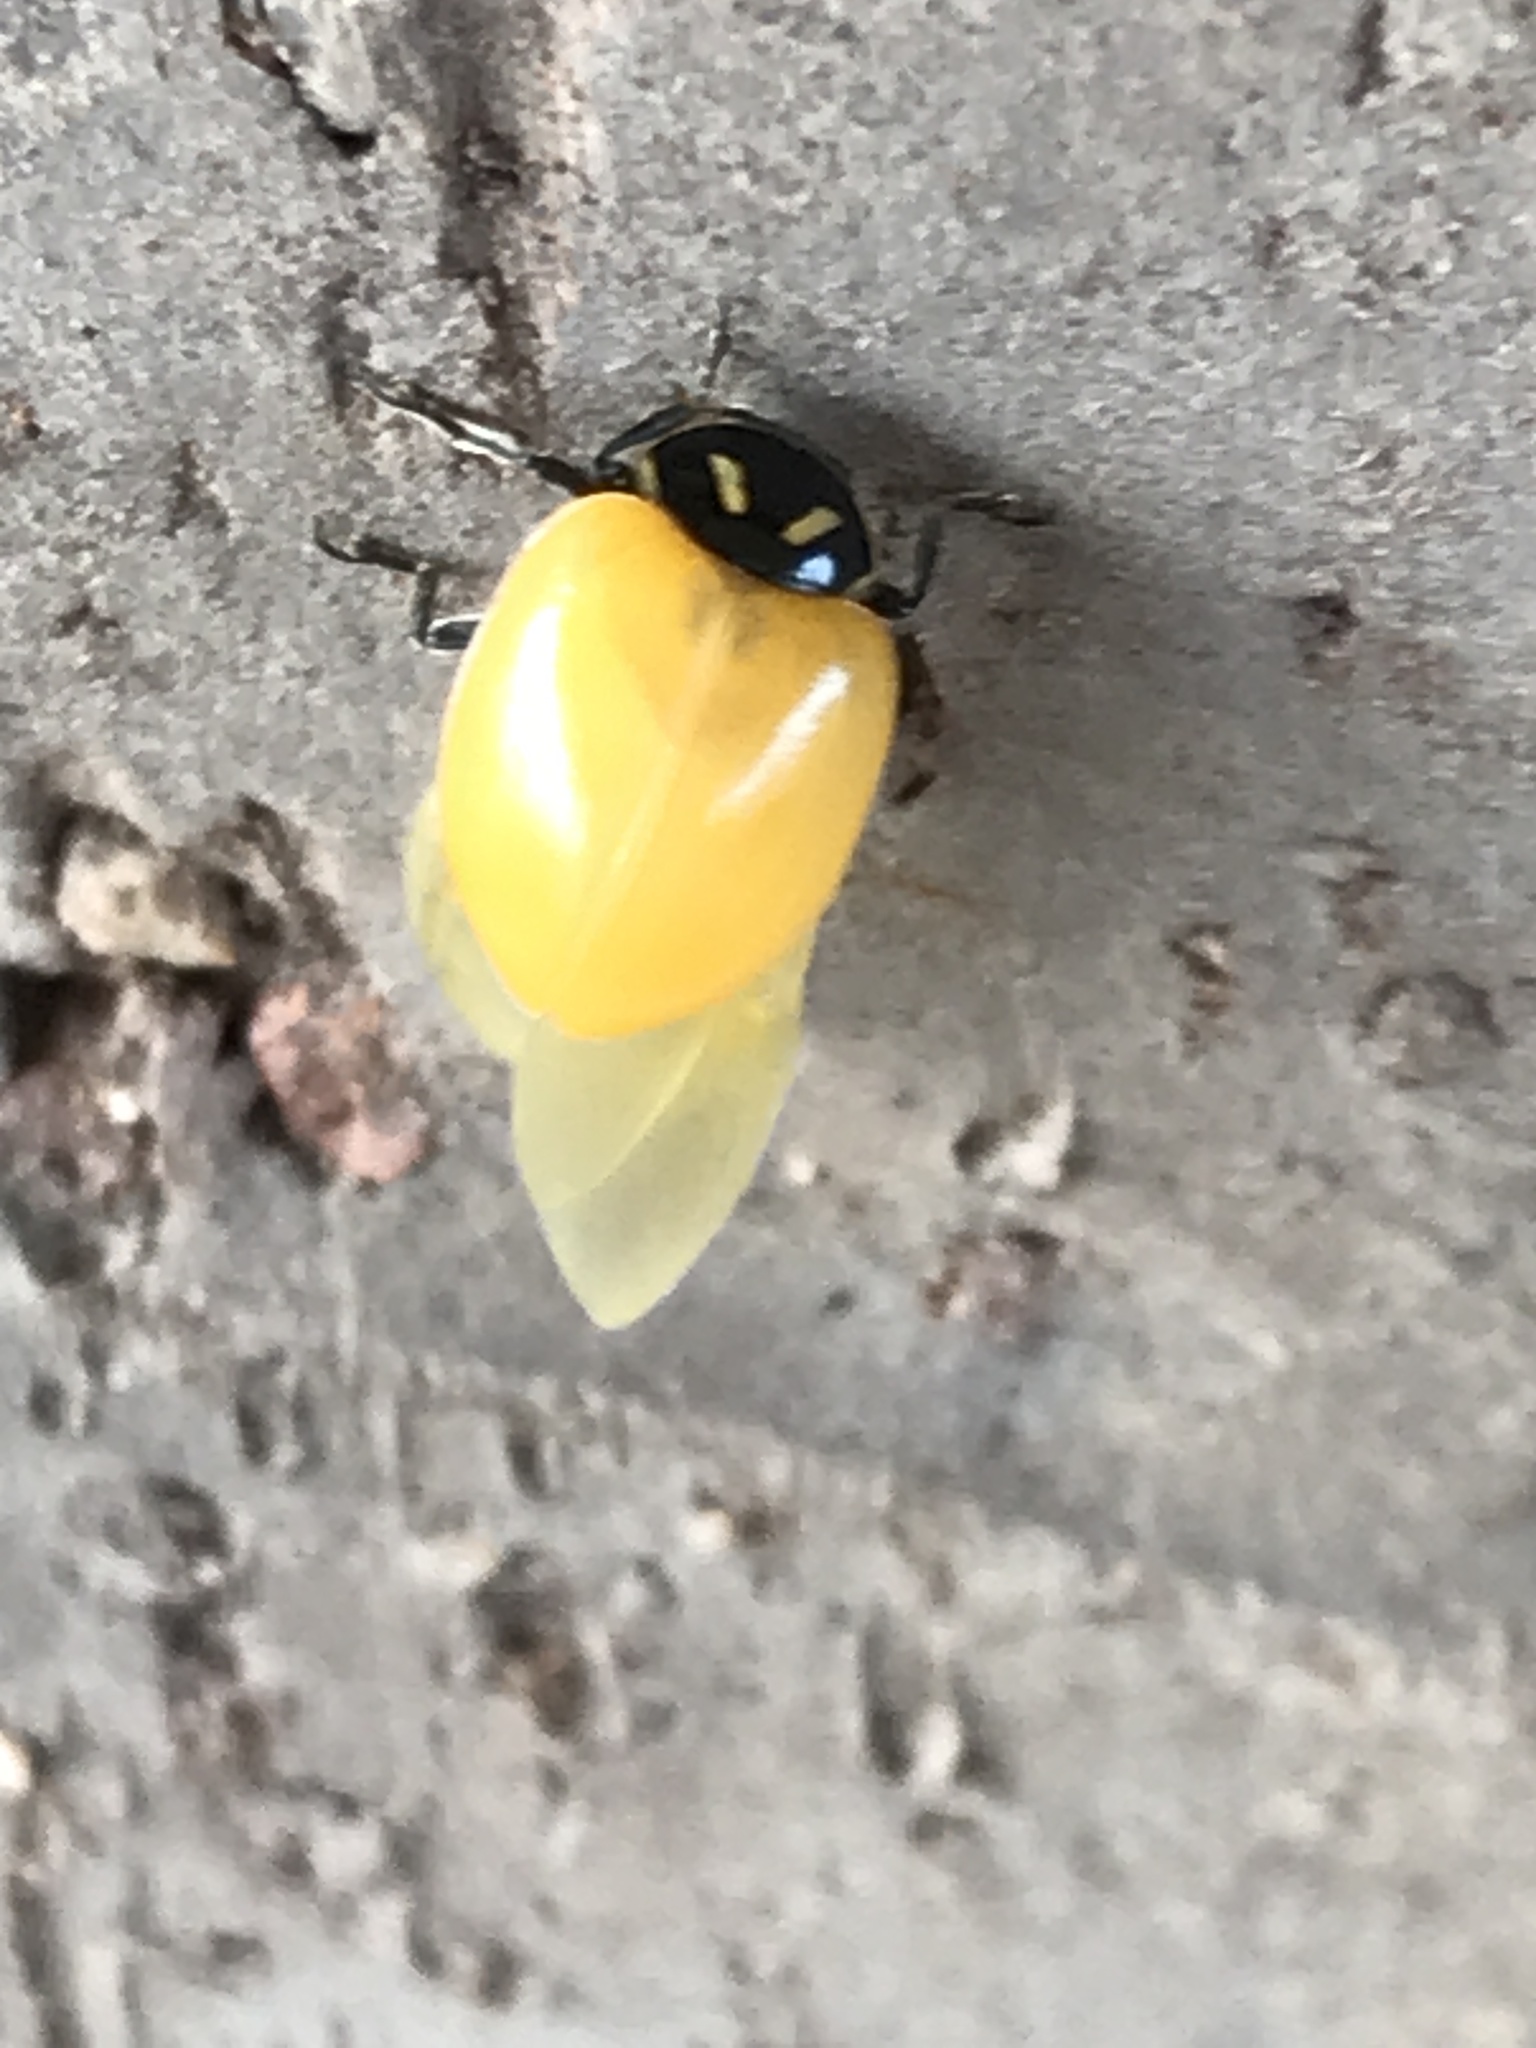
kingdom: Animalia
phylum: Arthropoda
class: Insecta
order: Coleoptera
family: Coccinellidae
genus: Hippodamia
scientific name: Hippodamia convergens
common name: Convergent lady beetle
